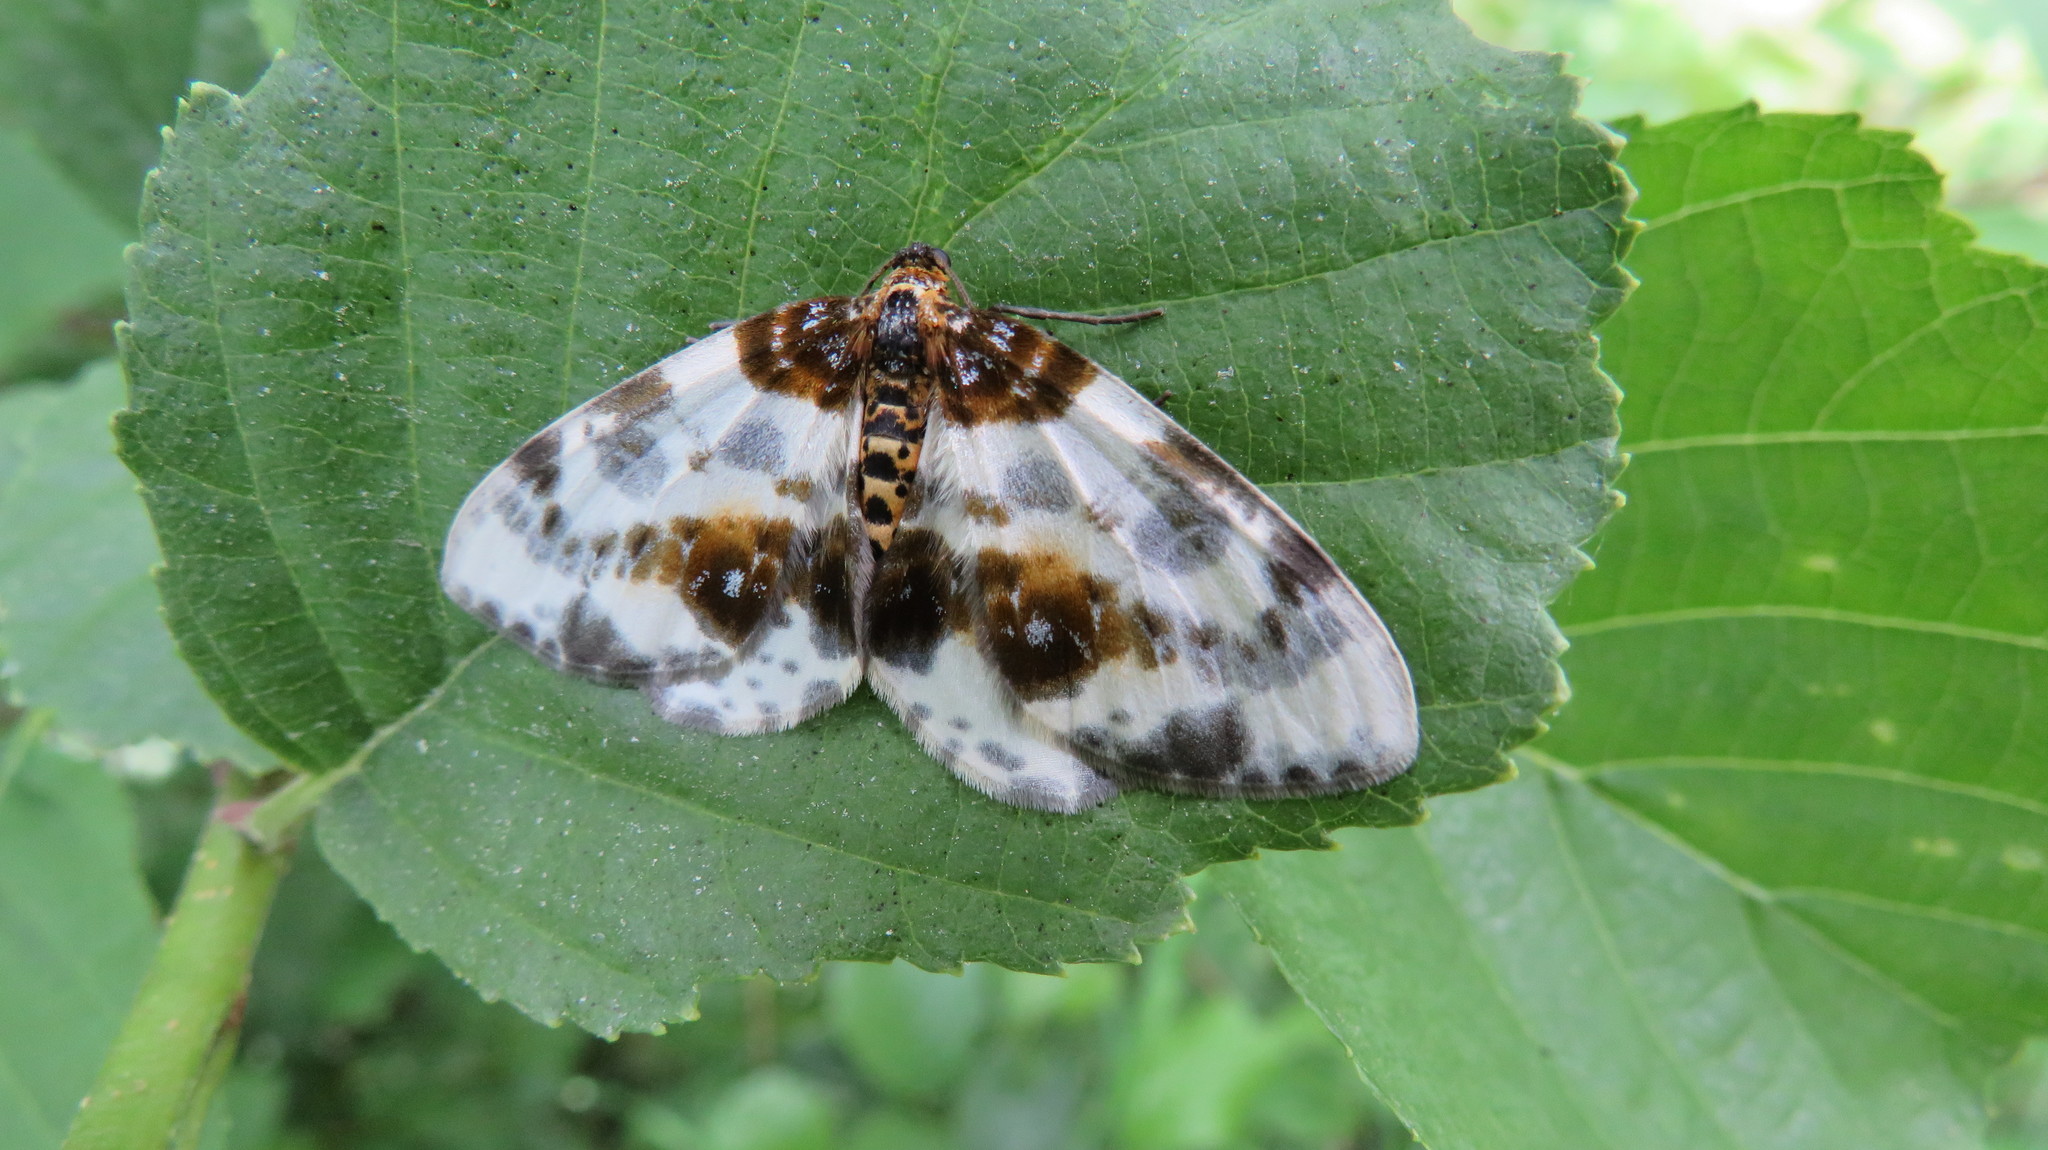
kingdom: Animalia
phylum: Arthropoda
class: Insecta
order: Lepidoptera
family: Geometridae
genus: Abraxas
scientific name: Abraxas sylvata
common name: Clouded magpie
